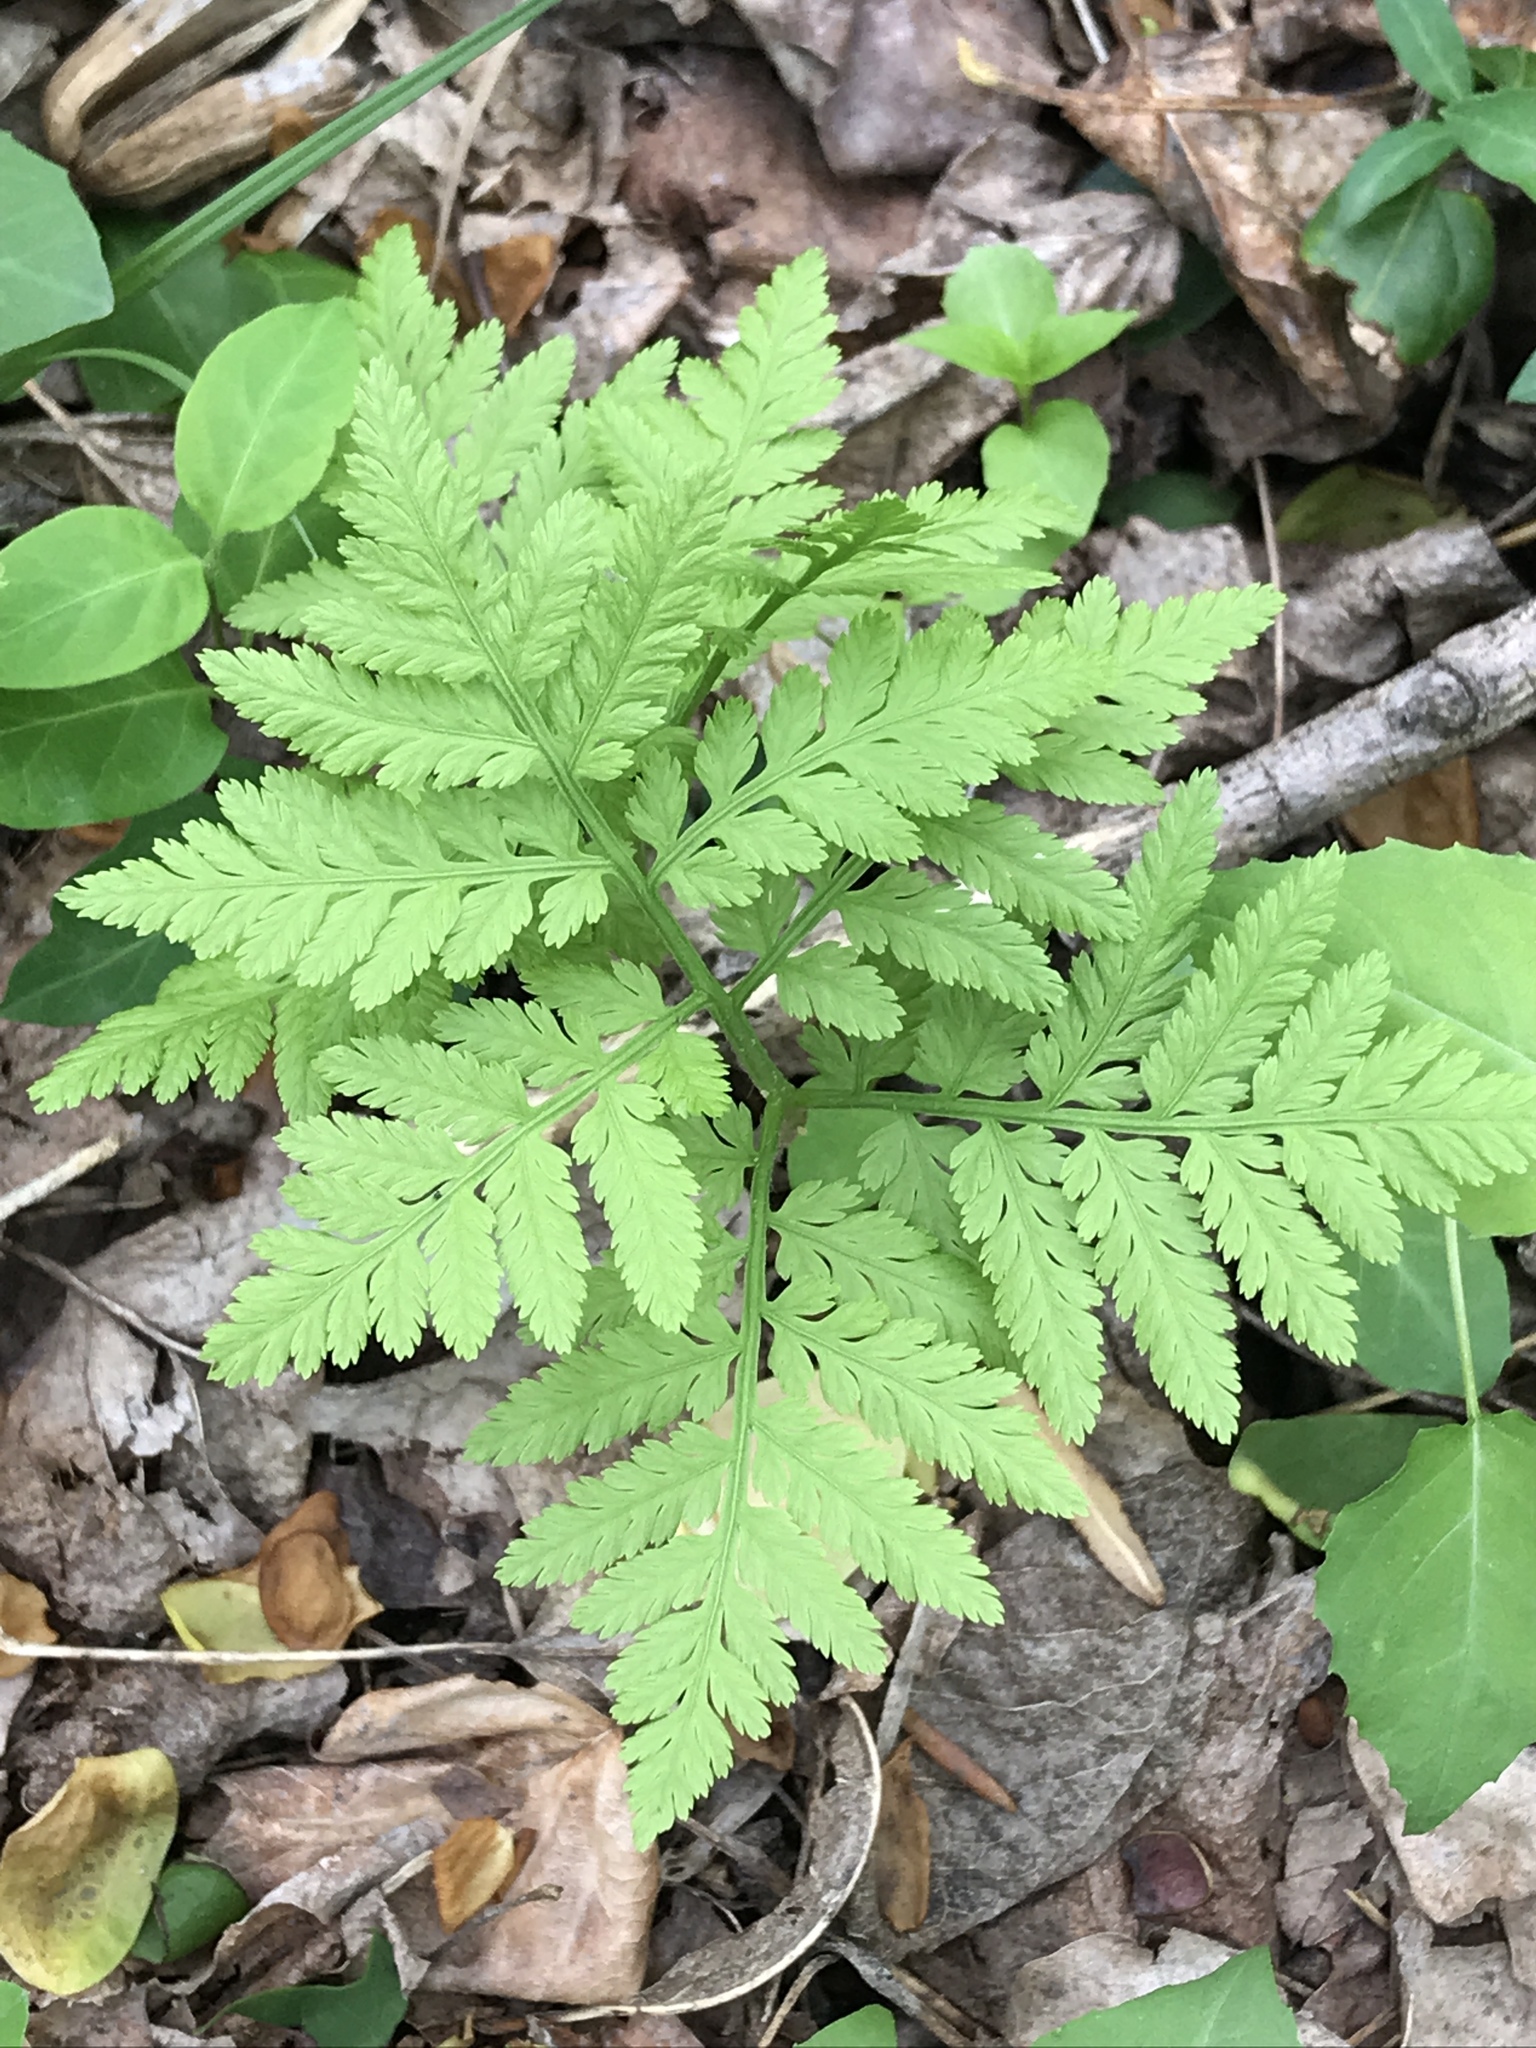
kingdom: Plantae
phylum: Tracheophyta
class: Polypodiopsida
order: Polypodiales
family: Thelypteridaceae
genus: Phegopteris
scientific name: Phegopteris hexagonoptera
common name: Broad beech fern
